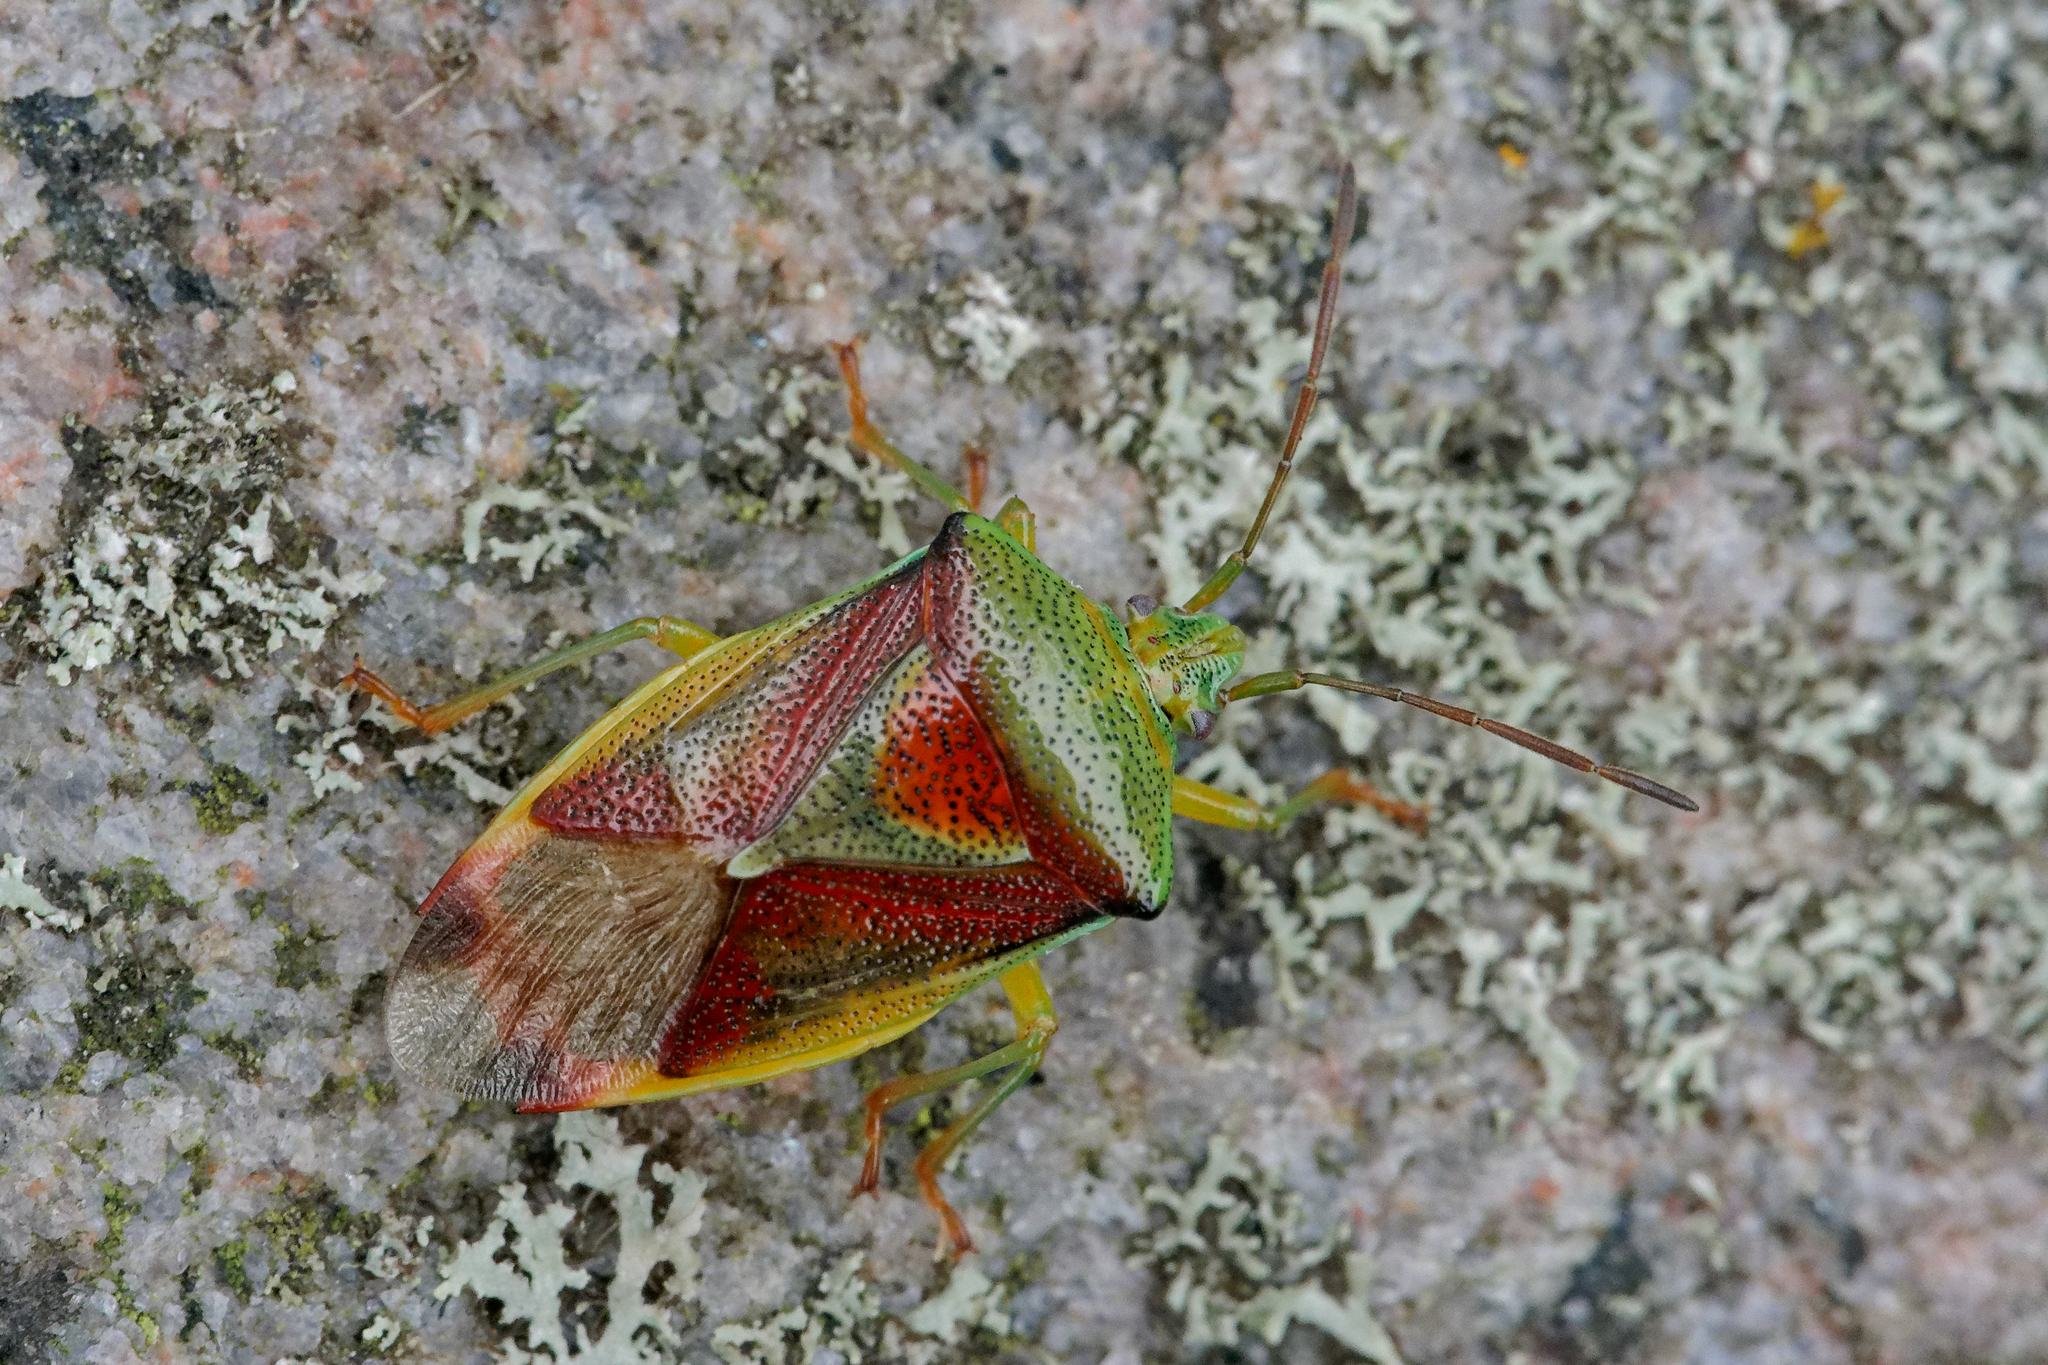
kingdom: Animalia
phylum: Arthropoda
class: Insecta
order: Hemiptera
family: Acanthosomatidae
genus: Elasmostethus
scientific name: Elasmostethus interstinctus
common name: Birch shieldbug
